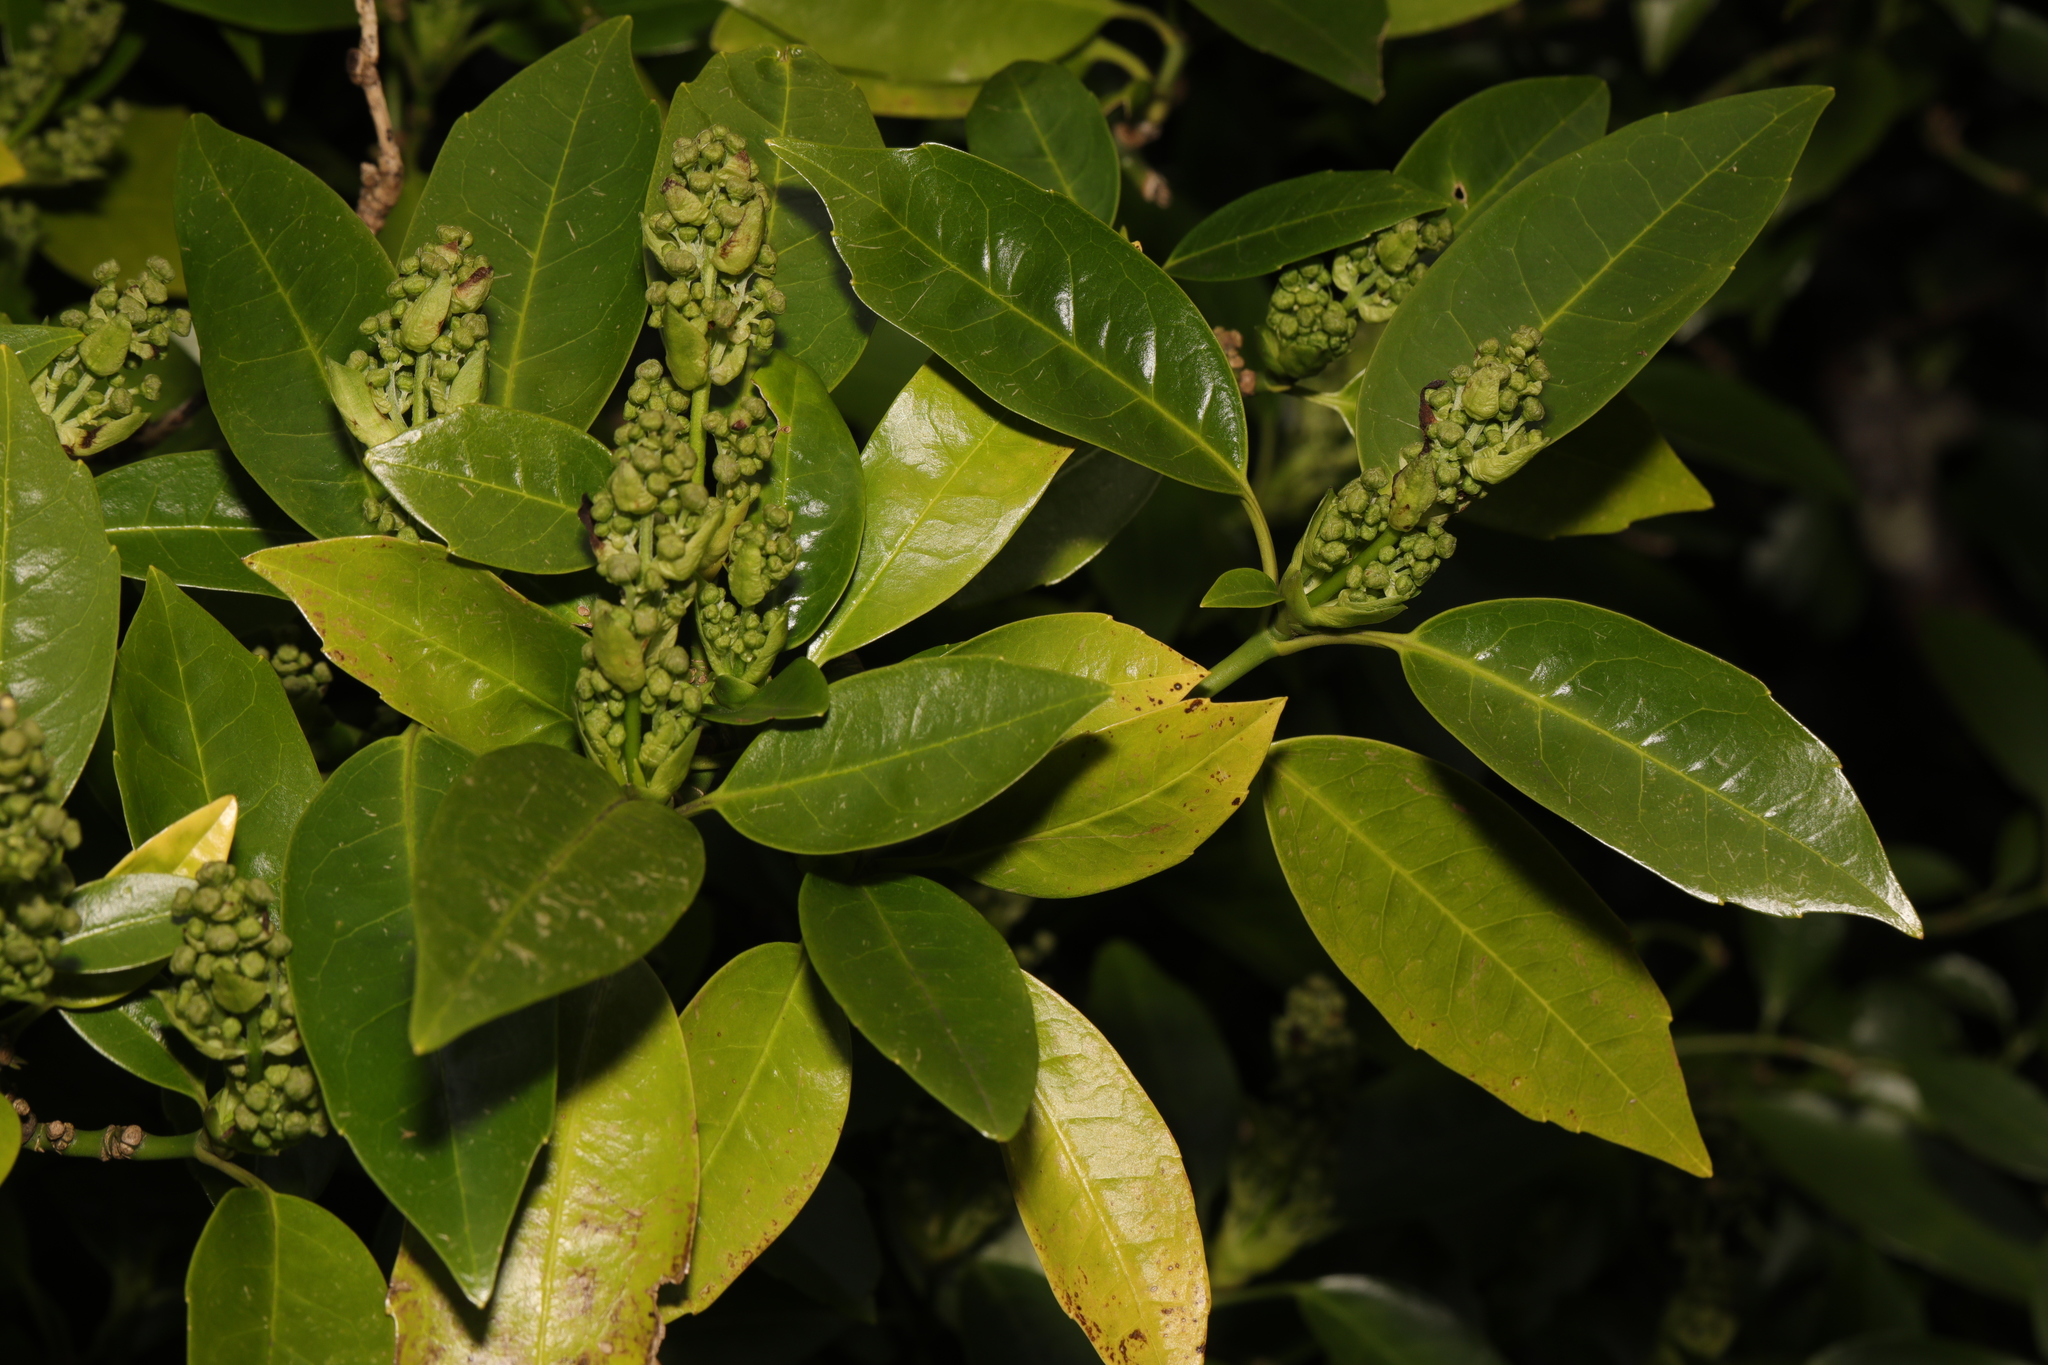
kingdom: Plantae
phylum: Tracheophyta
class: Magnoliopsida
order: Rosales
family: Rosaceae
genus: Prunus
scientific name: Prunus laurocerasus
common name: Cherry laurel
